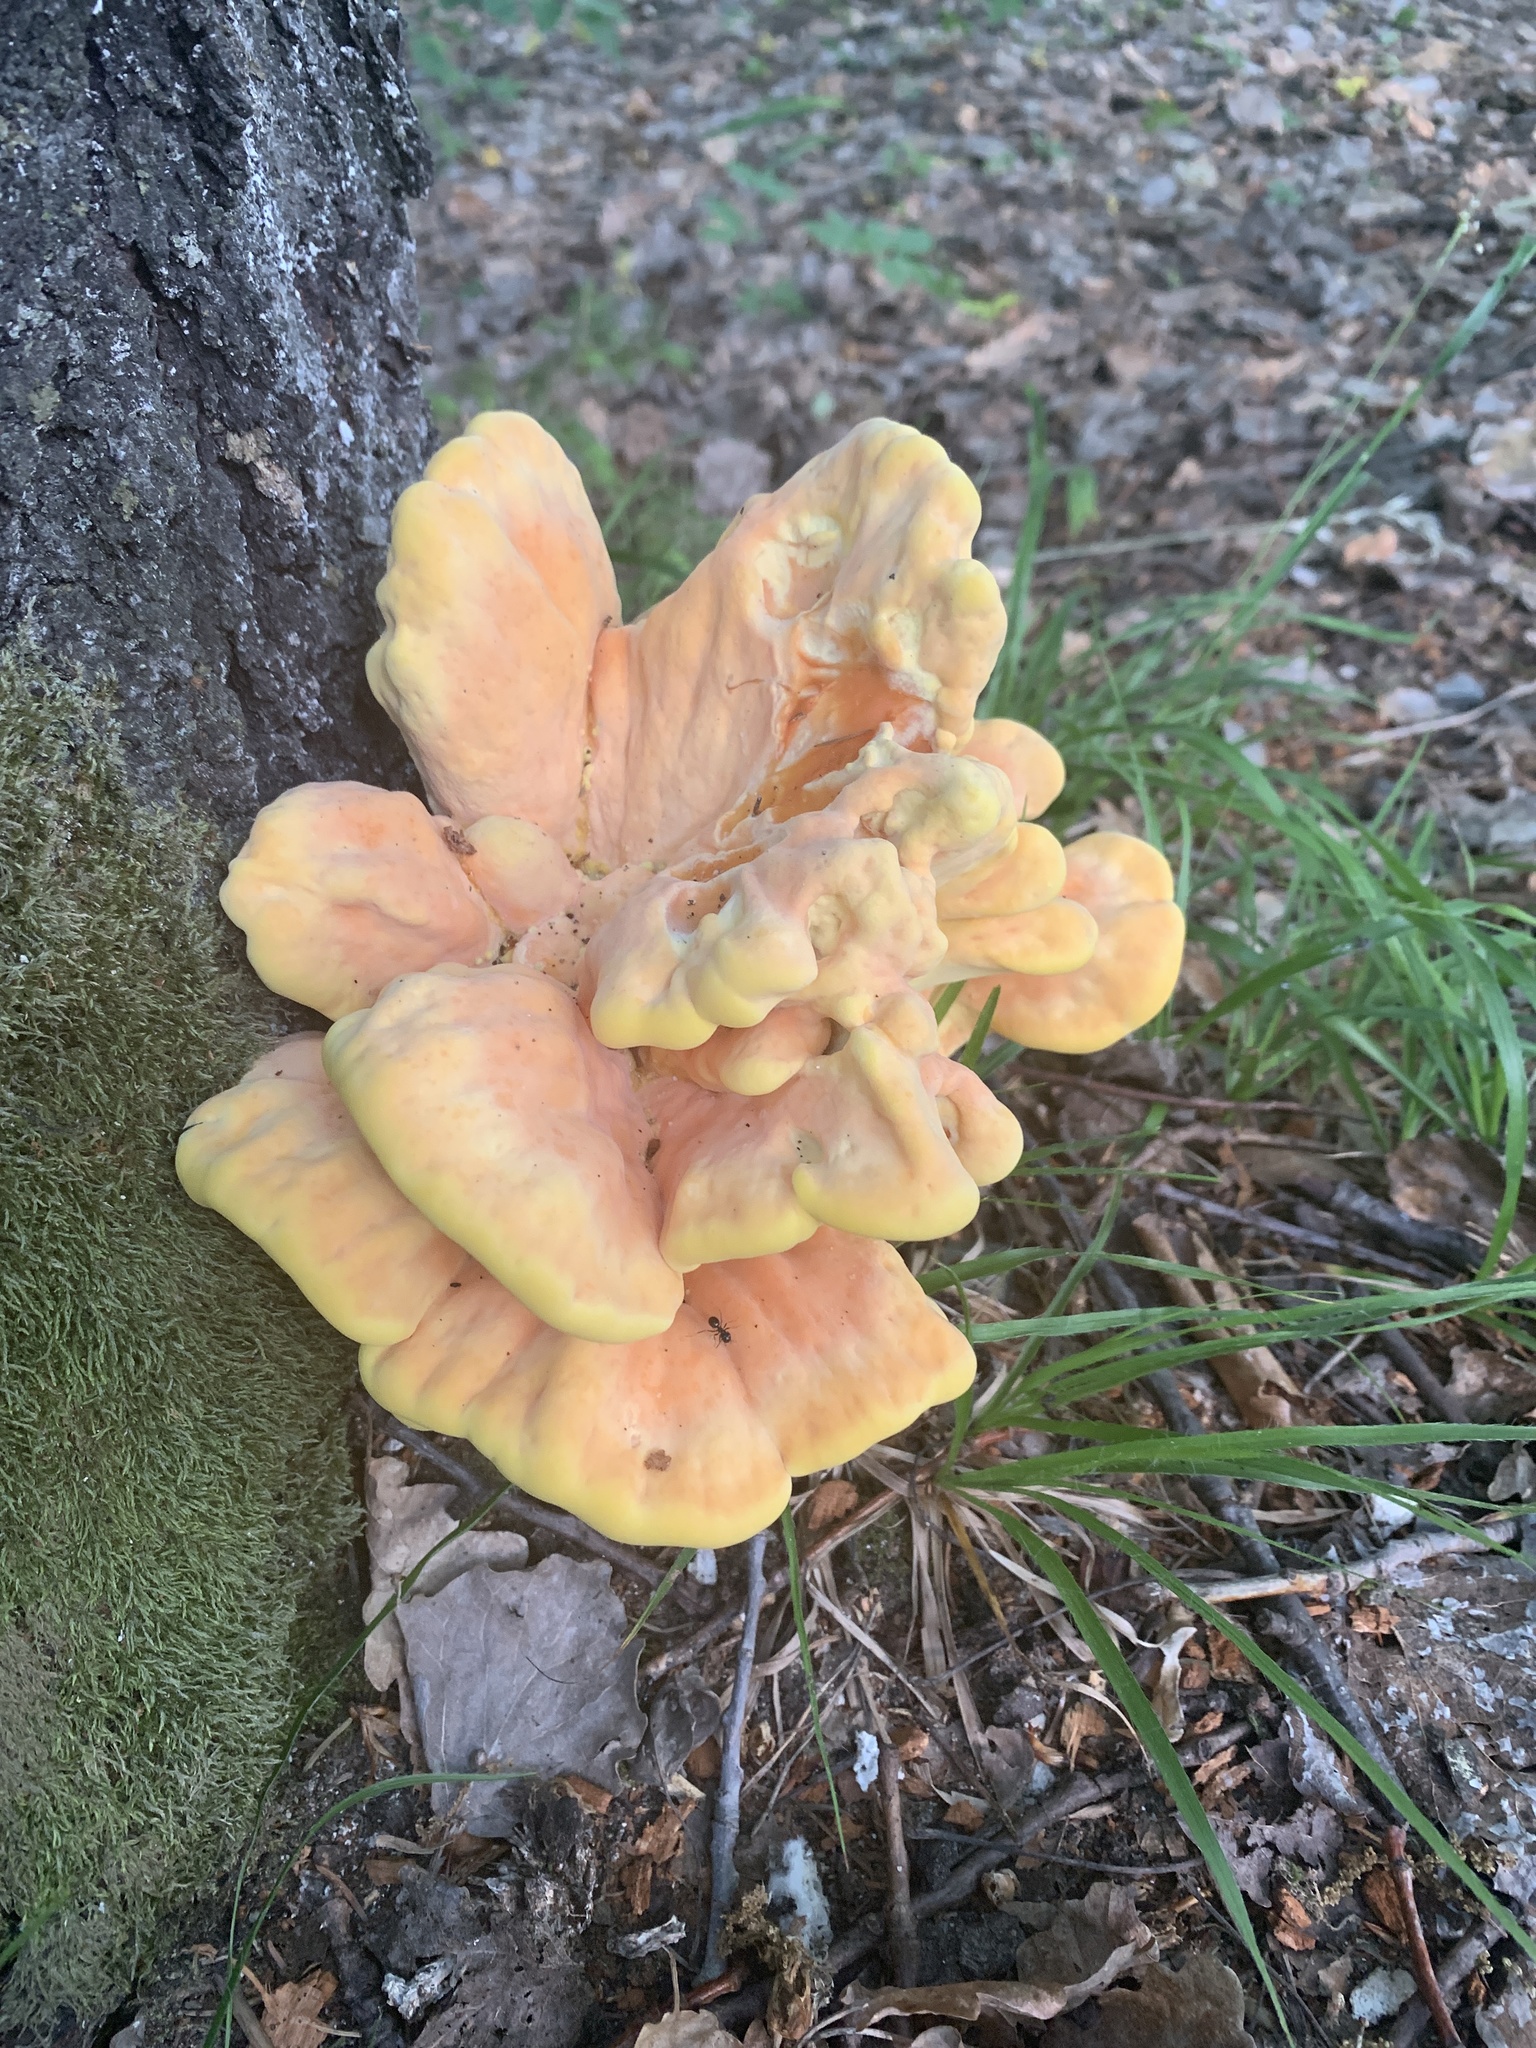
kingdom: Fungi
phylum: Basidiomycota
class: Agaricomycetes
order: Polyporales
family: Laetiporaceae
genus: Laetiporus
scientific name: Laetiporus sulphureus
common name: Chicken of the woods
